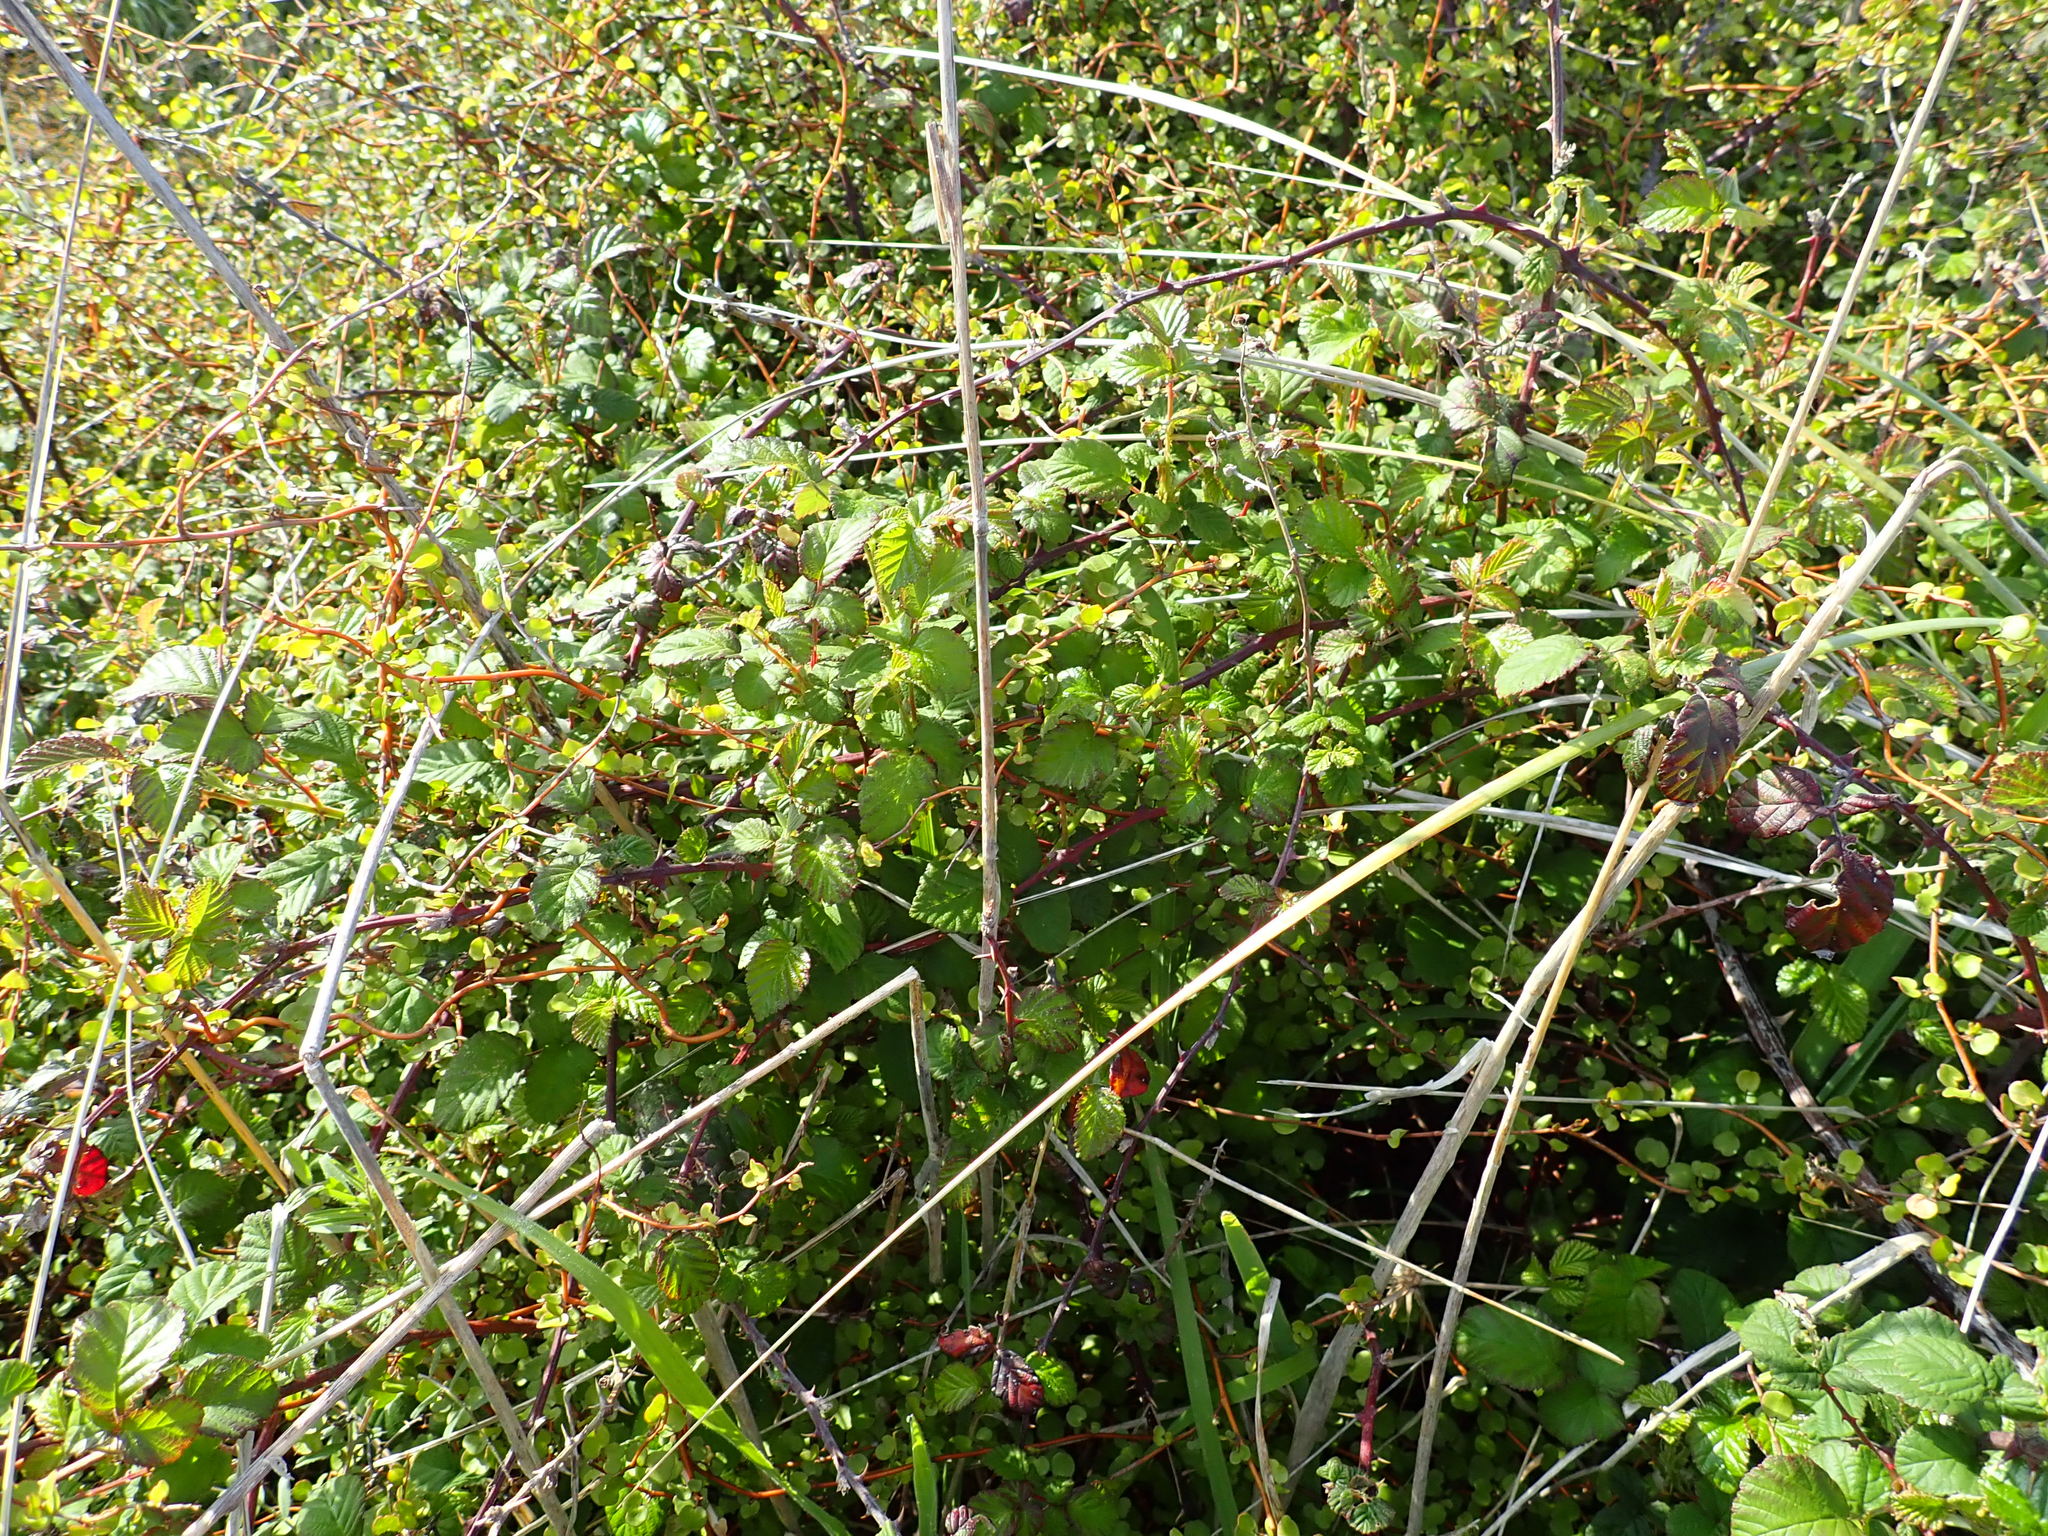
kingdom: Plantae
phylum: Tracheophyta
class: Magnoliopsida
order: Rosales
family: Rosaceae
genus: Rubus
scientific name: Rubus
